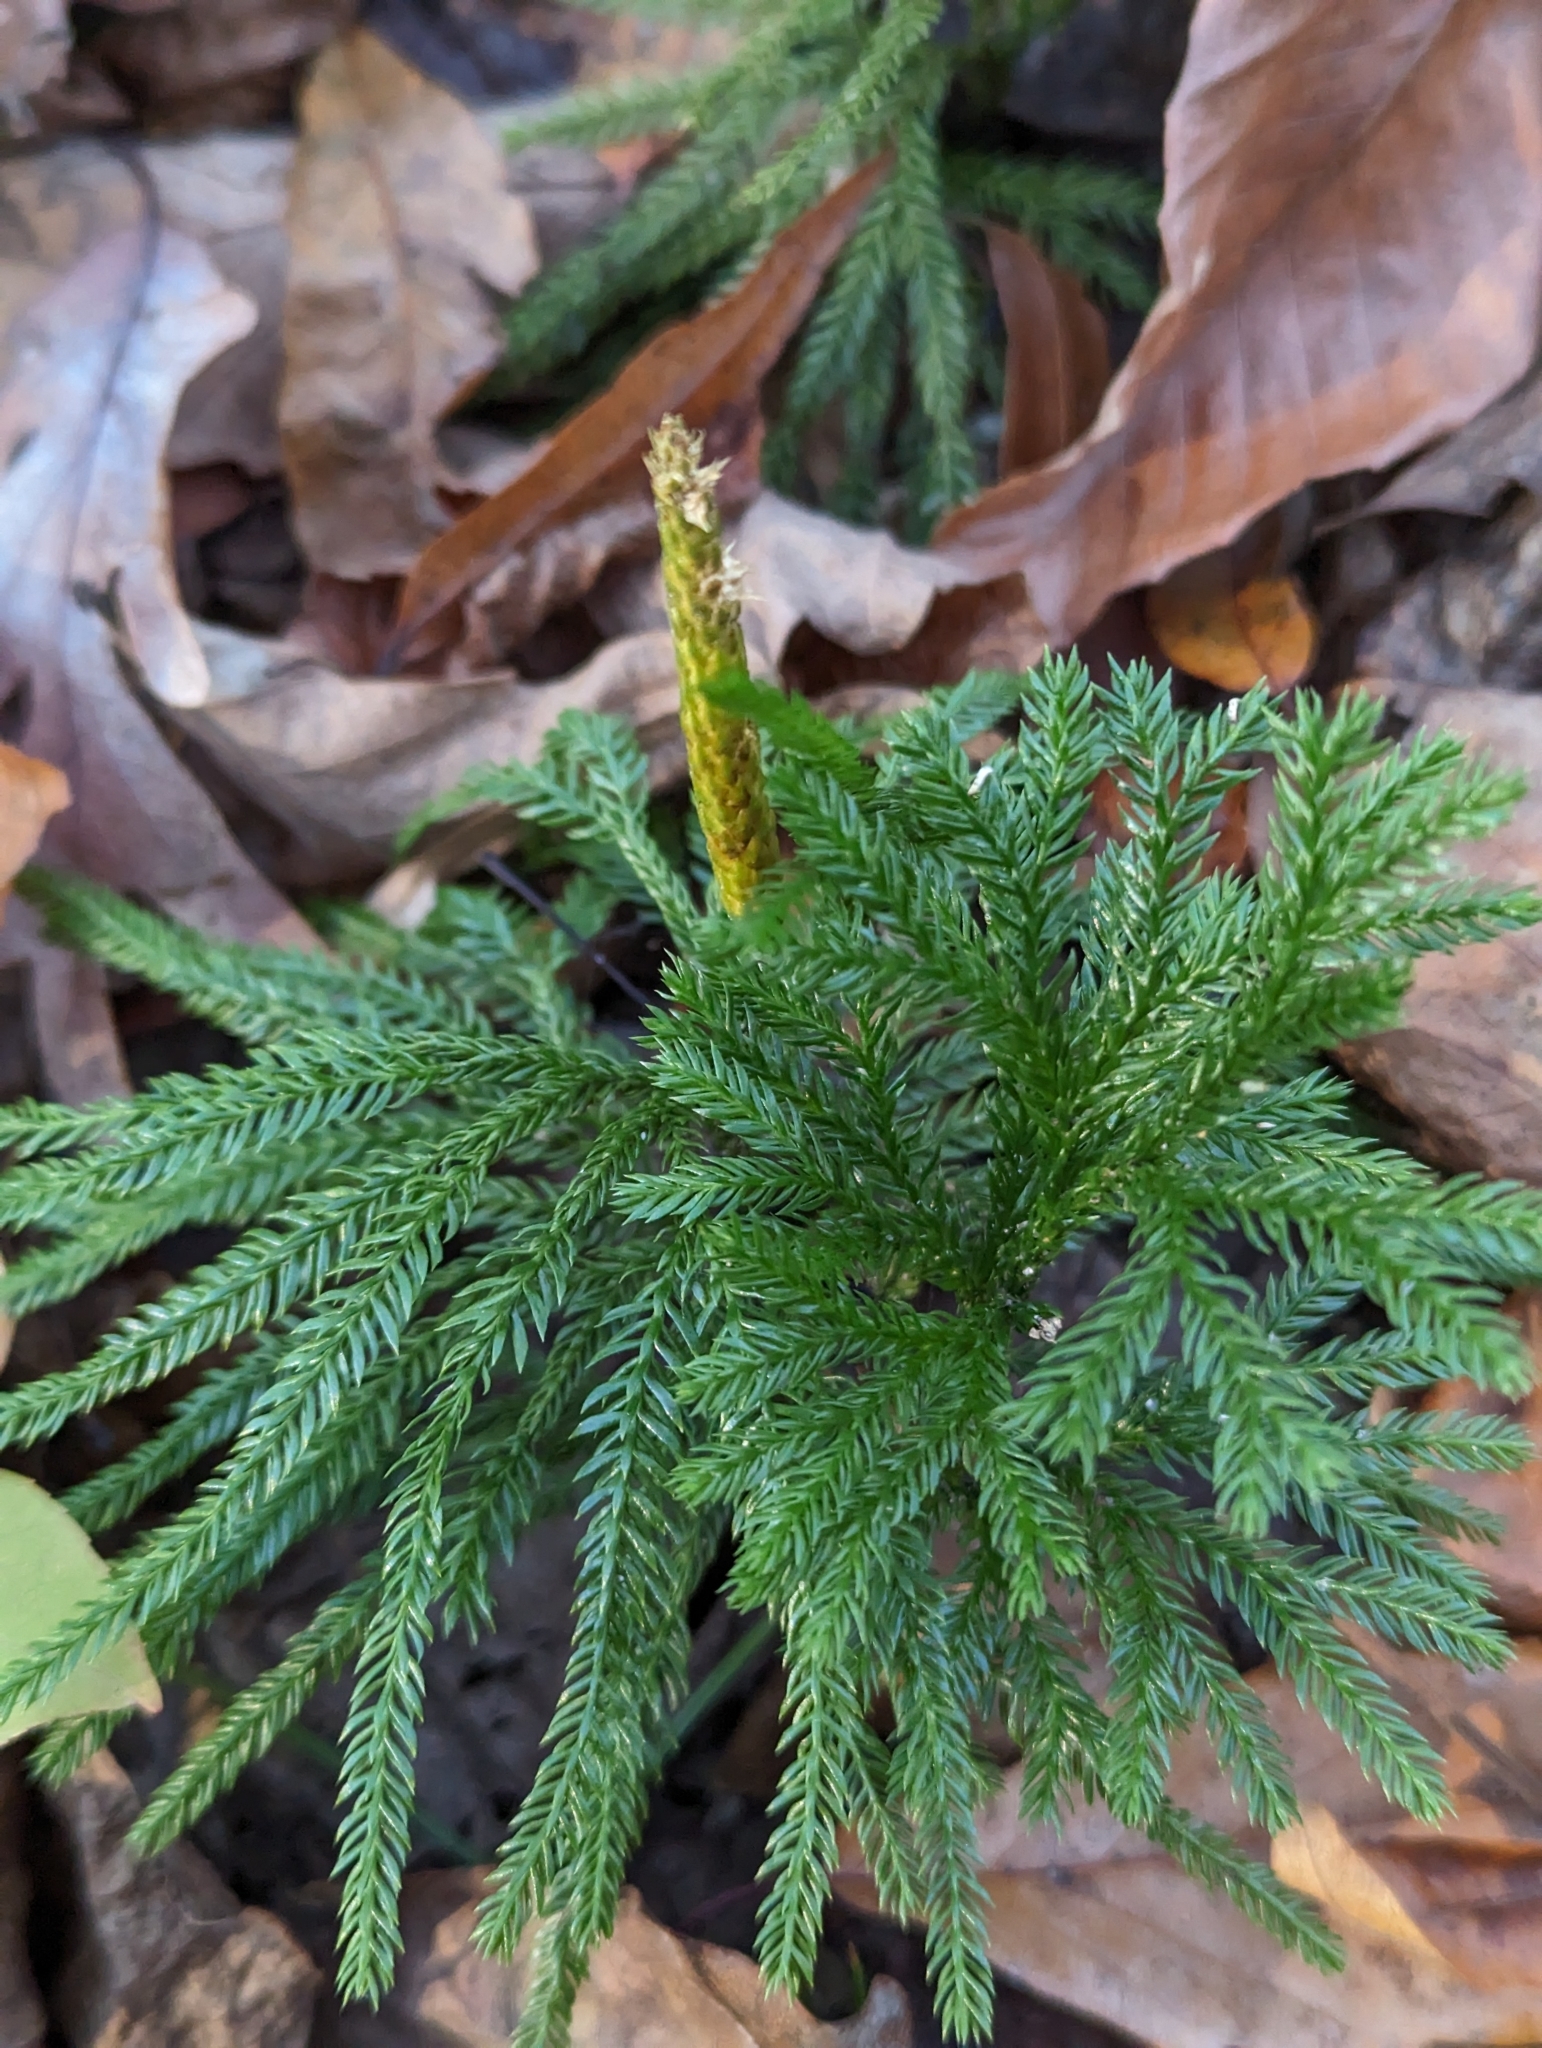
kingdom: Plantae
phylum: Tracheophyta
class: Lycopodiopsida
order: Lycopodiales
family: Lycopodiaceae
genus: Dendrolycopodium
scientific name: Dendrolycopodium obscurum
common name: Common ground-pine
